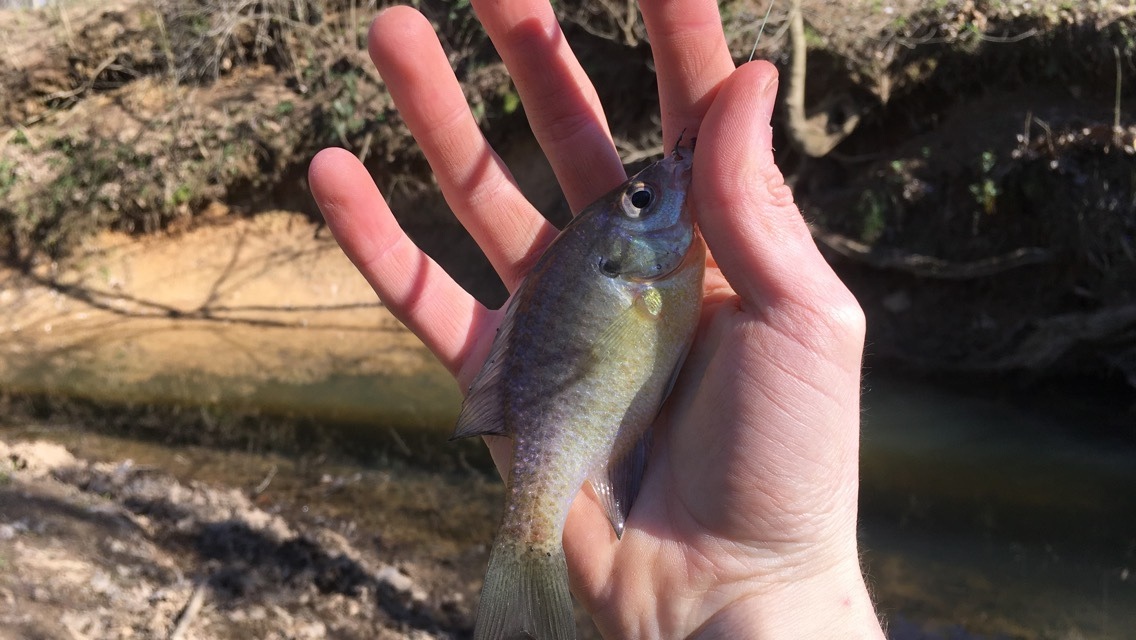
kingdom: Animalia
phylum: Chordata
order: Perciformes
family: Centrarchidae
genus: Lepomis
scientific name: Lepomis macrochirus
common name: Bluegill
